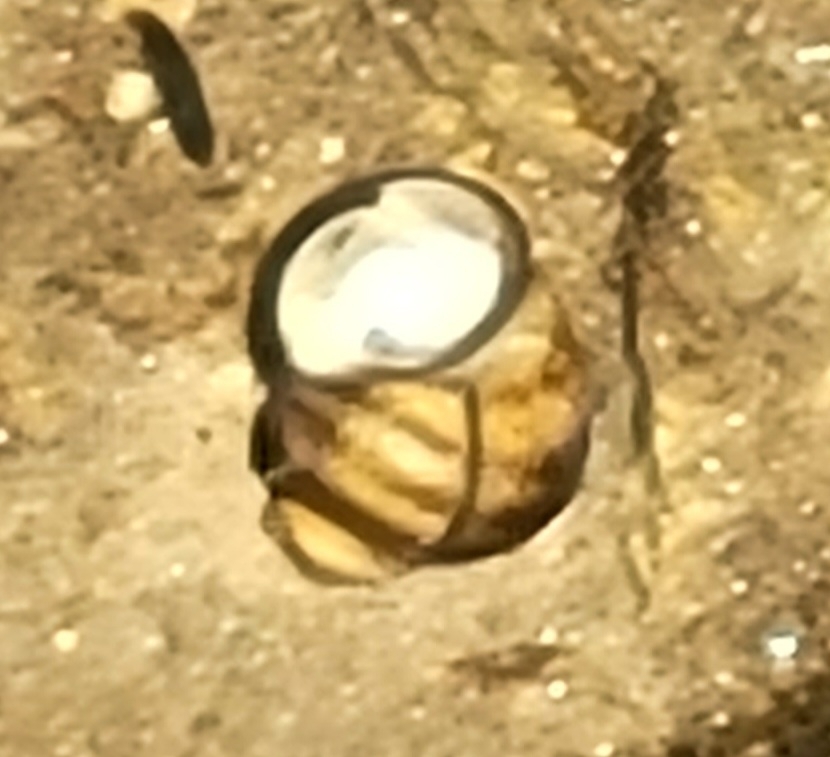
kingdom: Animalia
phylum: Mollusca
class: Gastropoda
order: Architaenioglossa
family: Viviparidae
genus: Callinina
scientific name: Callinina georgiana
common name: Banded mystery snail
